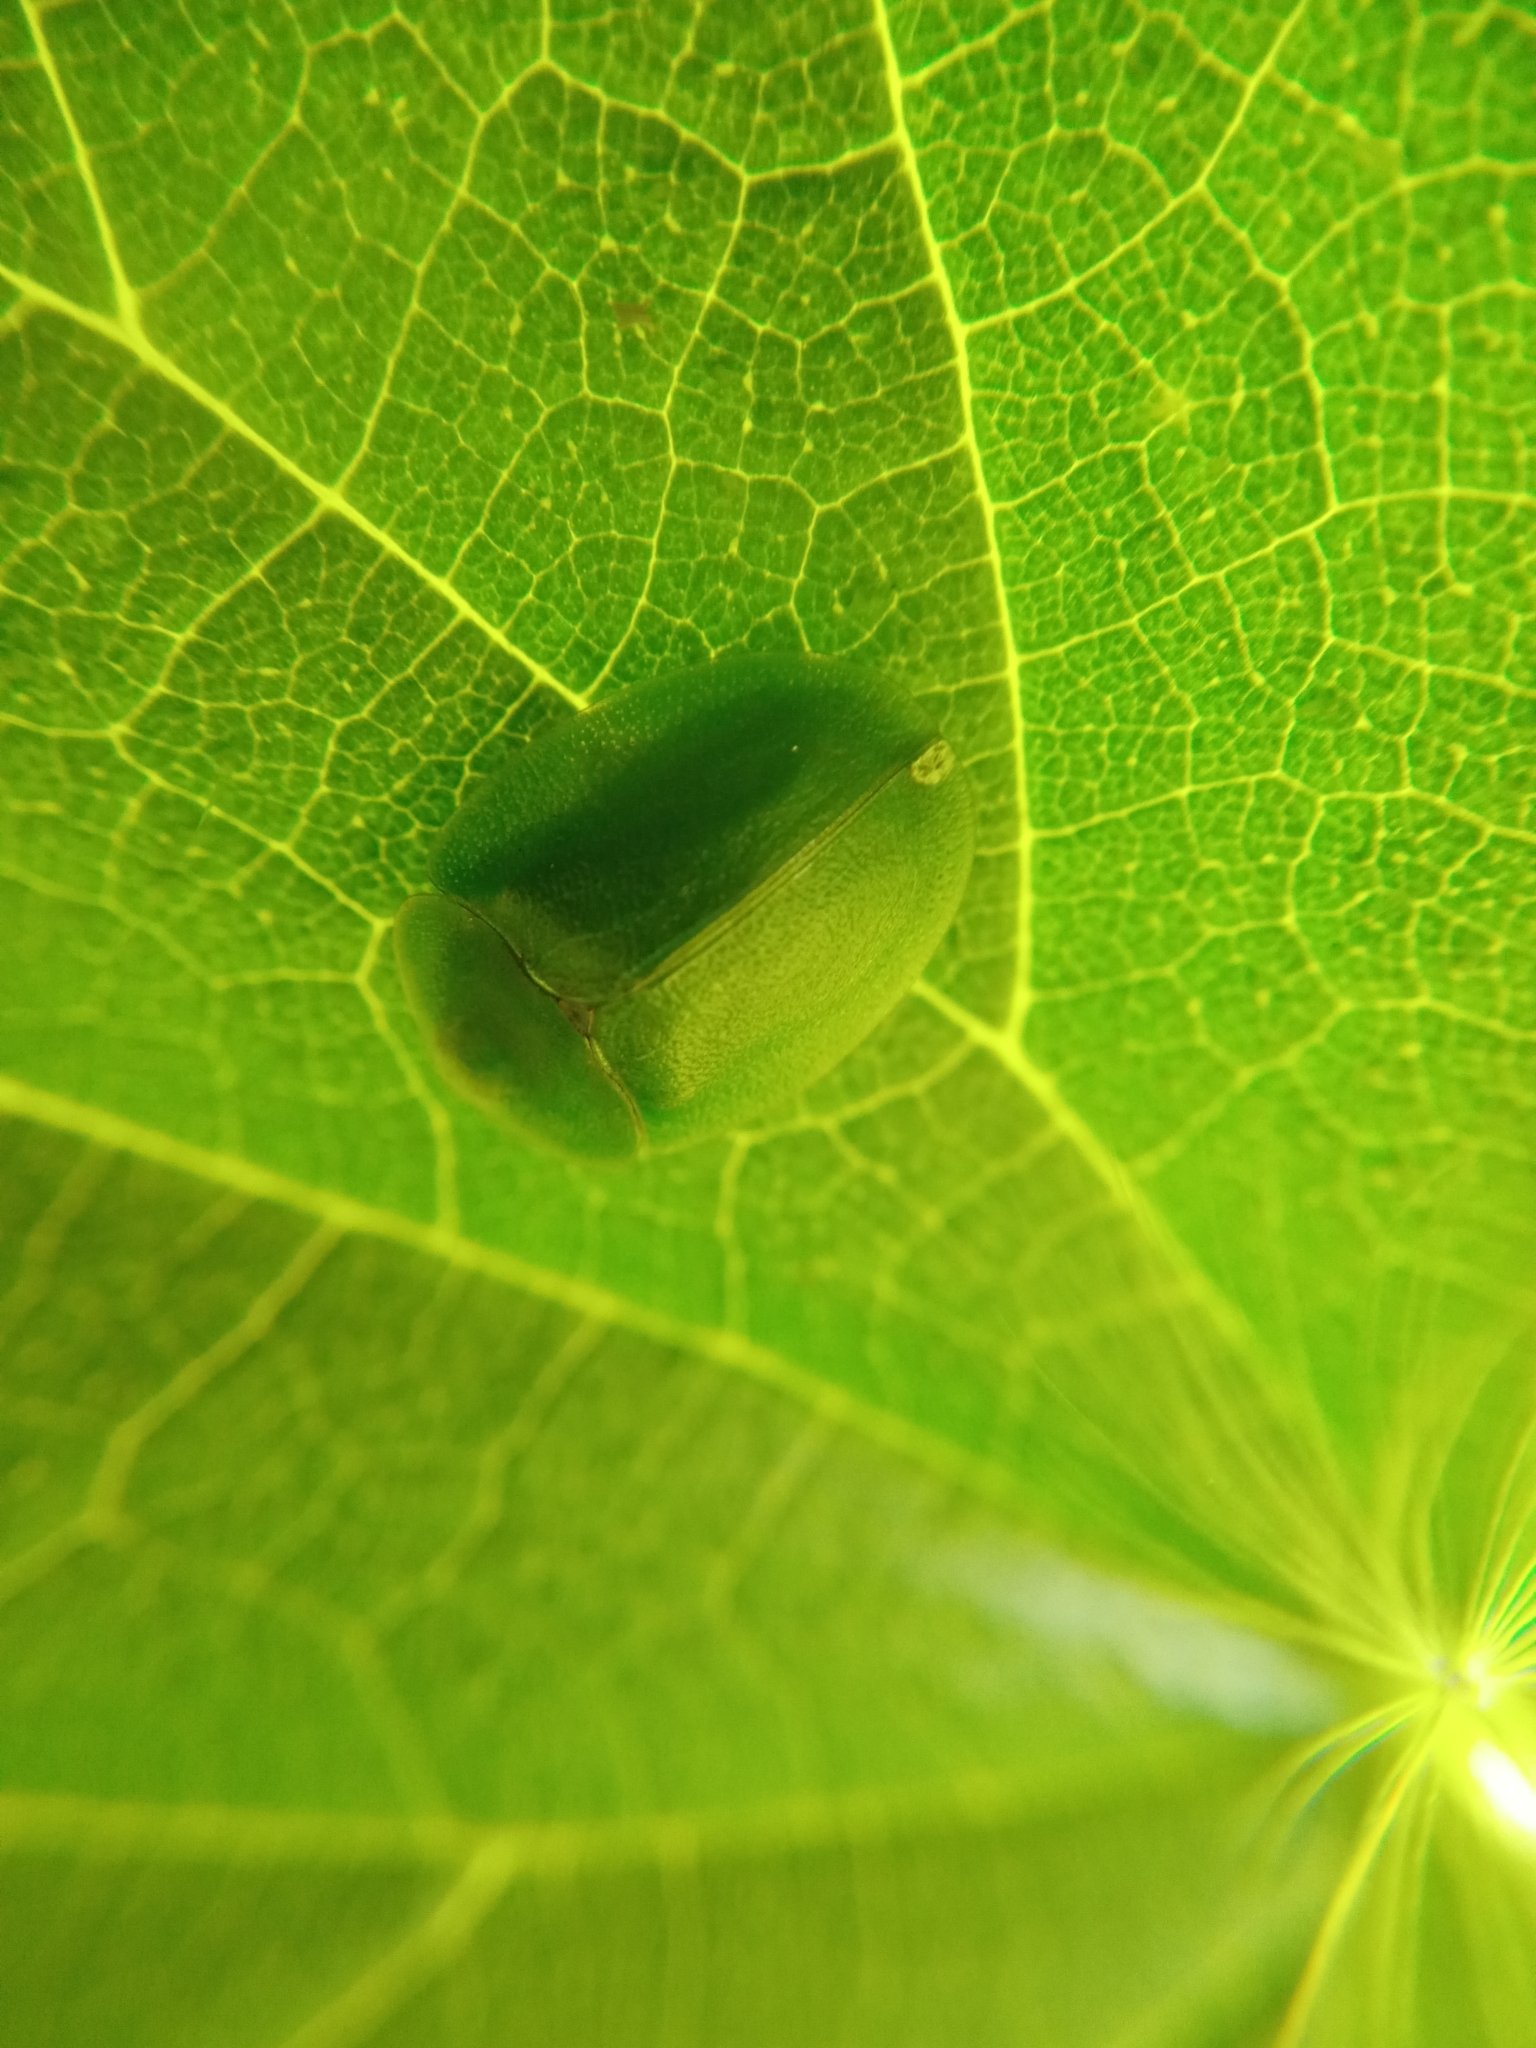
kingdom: Animalia
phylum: Arthropoda
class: Insecta
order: Coleoptera
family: Chrysomelidae
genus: Cassida
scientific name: Cassida viridis
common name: Green tortoise beetle
